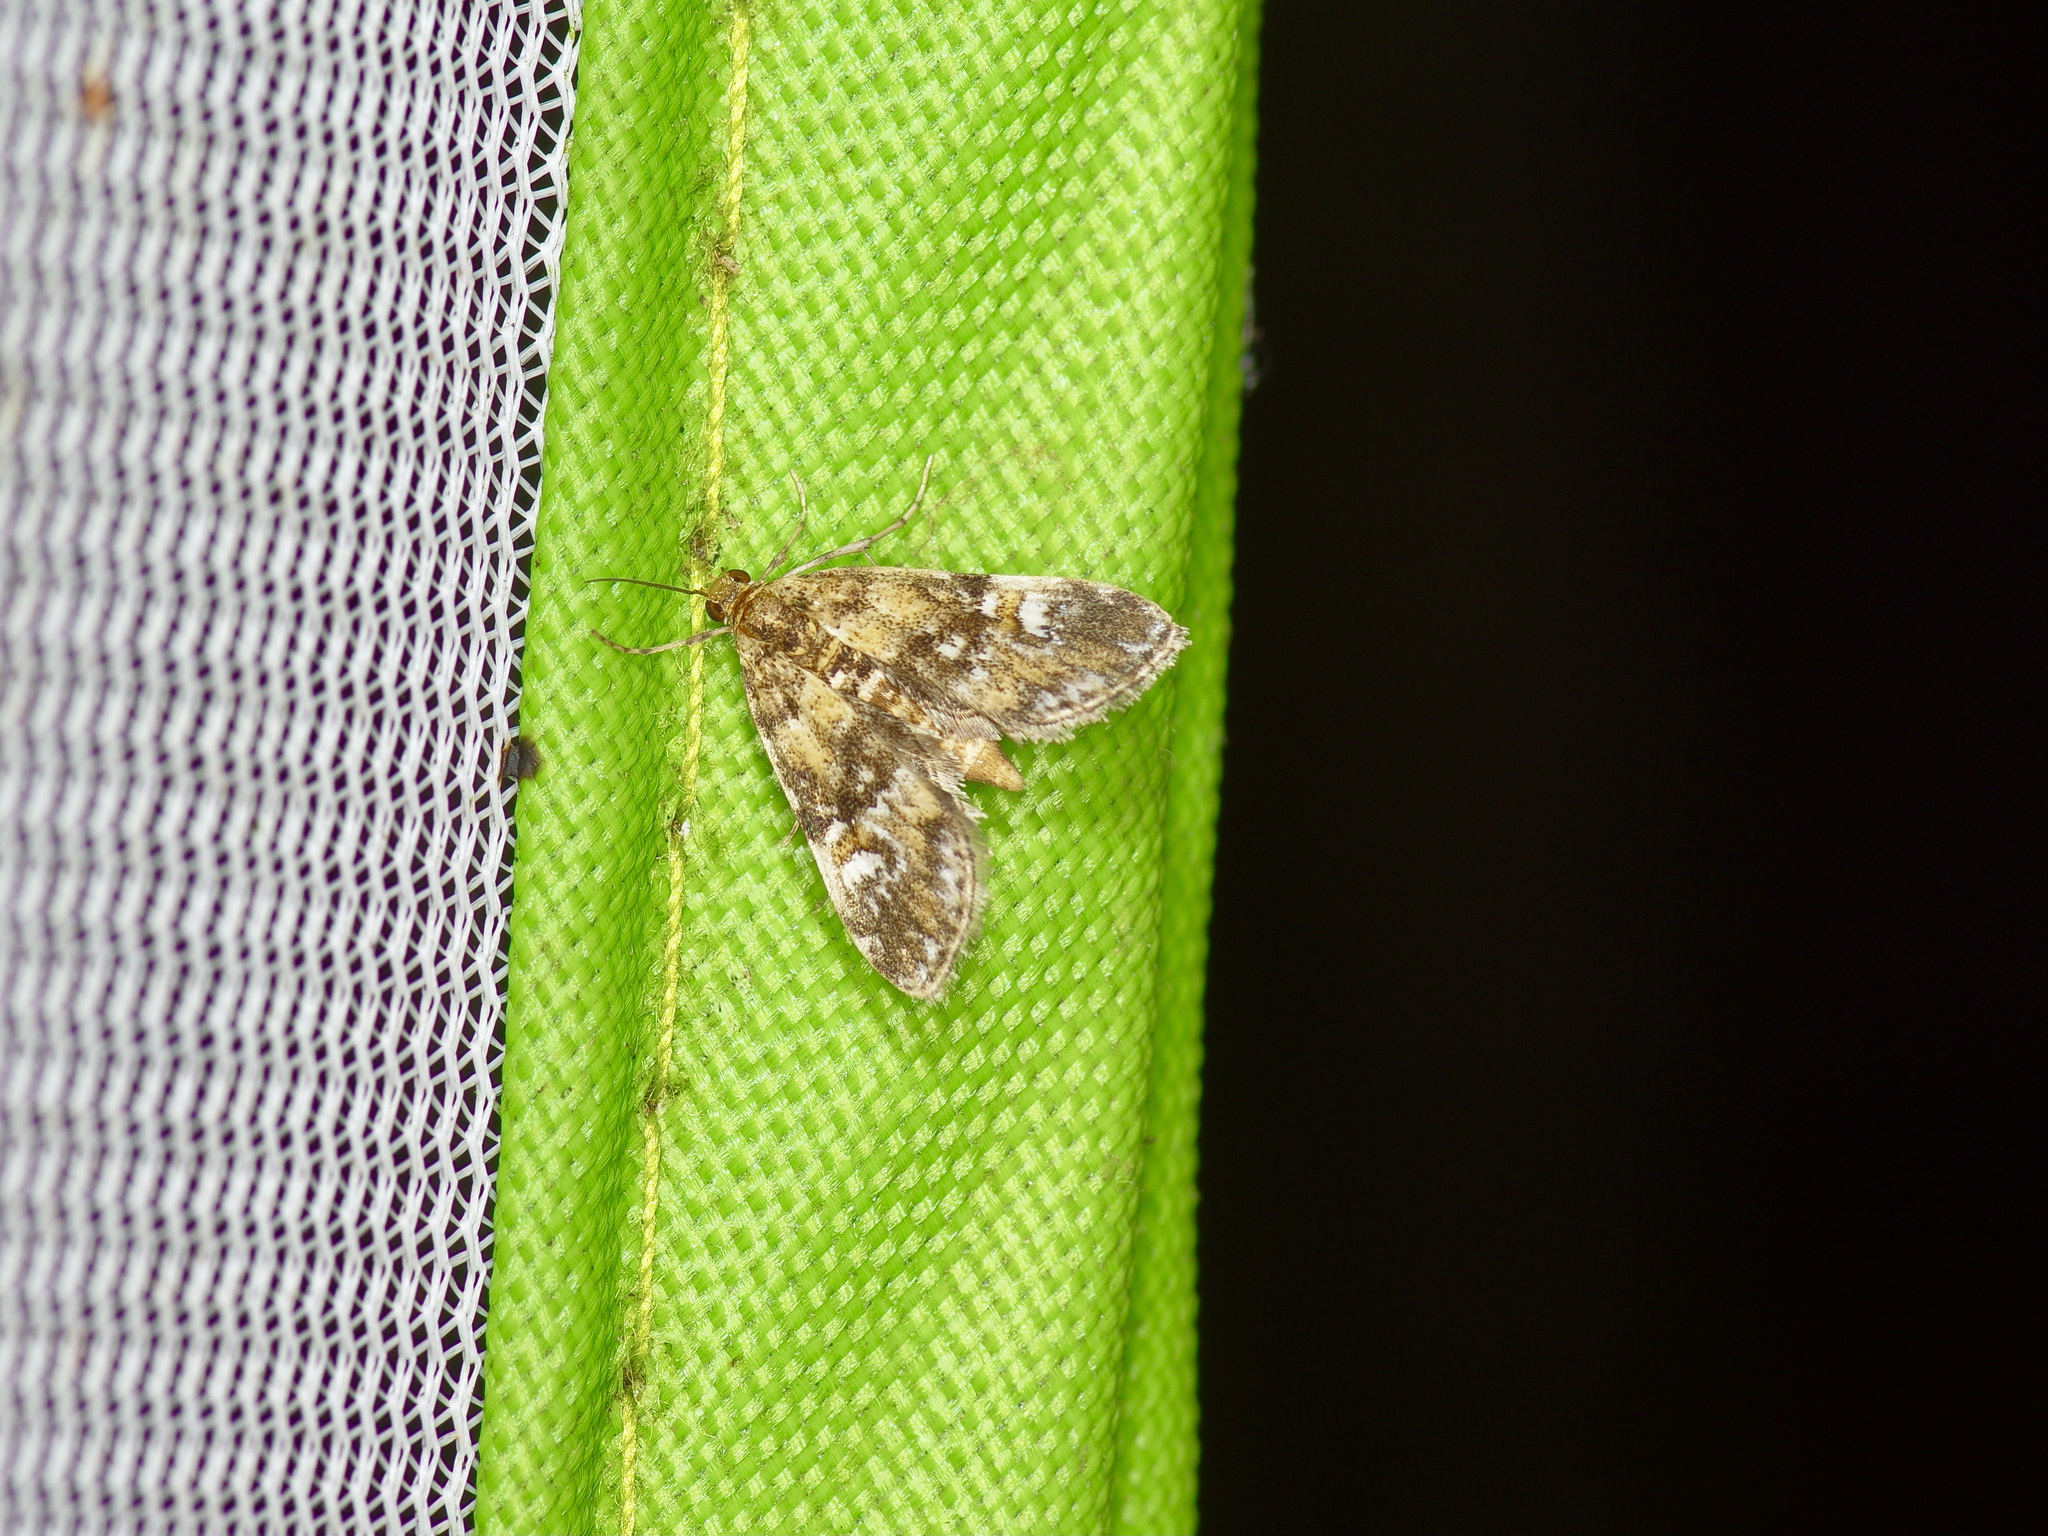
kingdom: Animalia
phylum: Arthropoda
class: Insecta
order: Lepidoptera
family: Crambidae
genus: Elophila
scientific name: Elophila obliteralis
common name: Waterlily leafcutter moth
